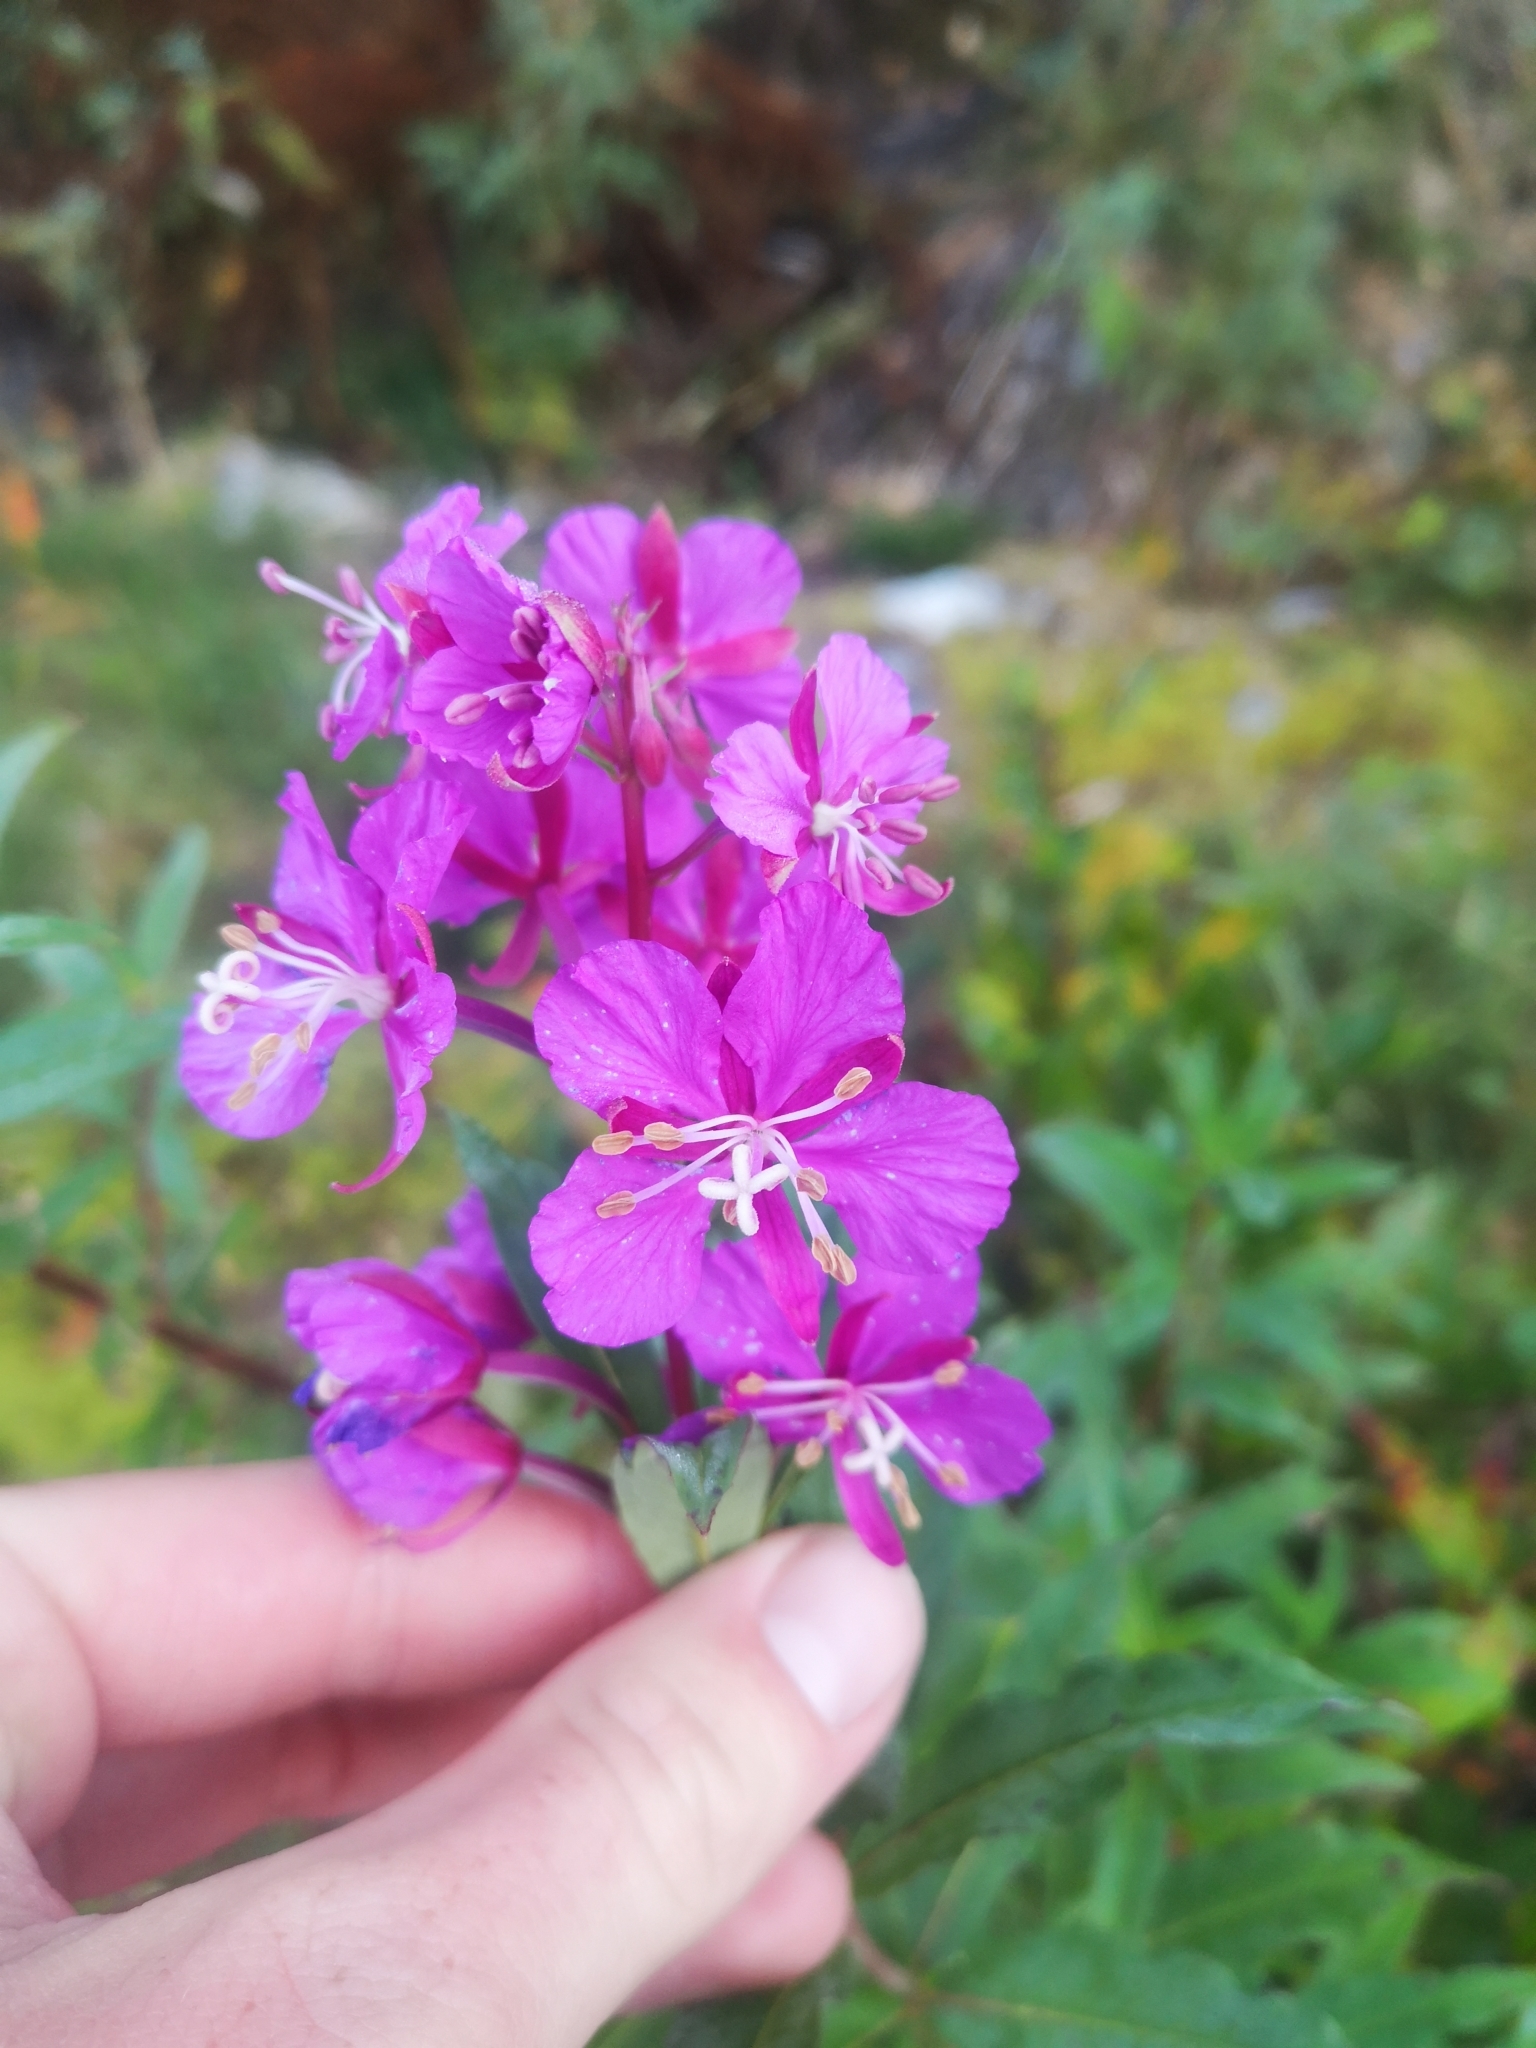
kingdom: Plantae
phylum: Tracheophyta
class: Magnoliopsida
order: Myrtales
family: Onagraceae
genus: Chamaenerion
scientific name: Chamaenerion angustifolium
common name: Fireweed
